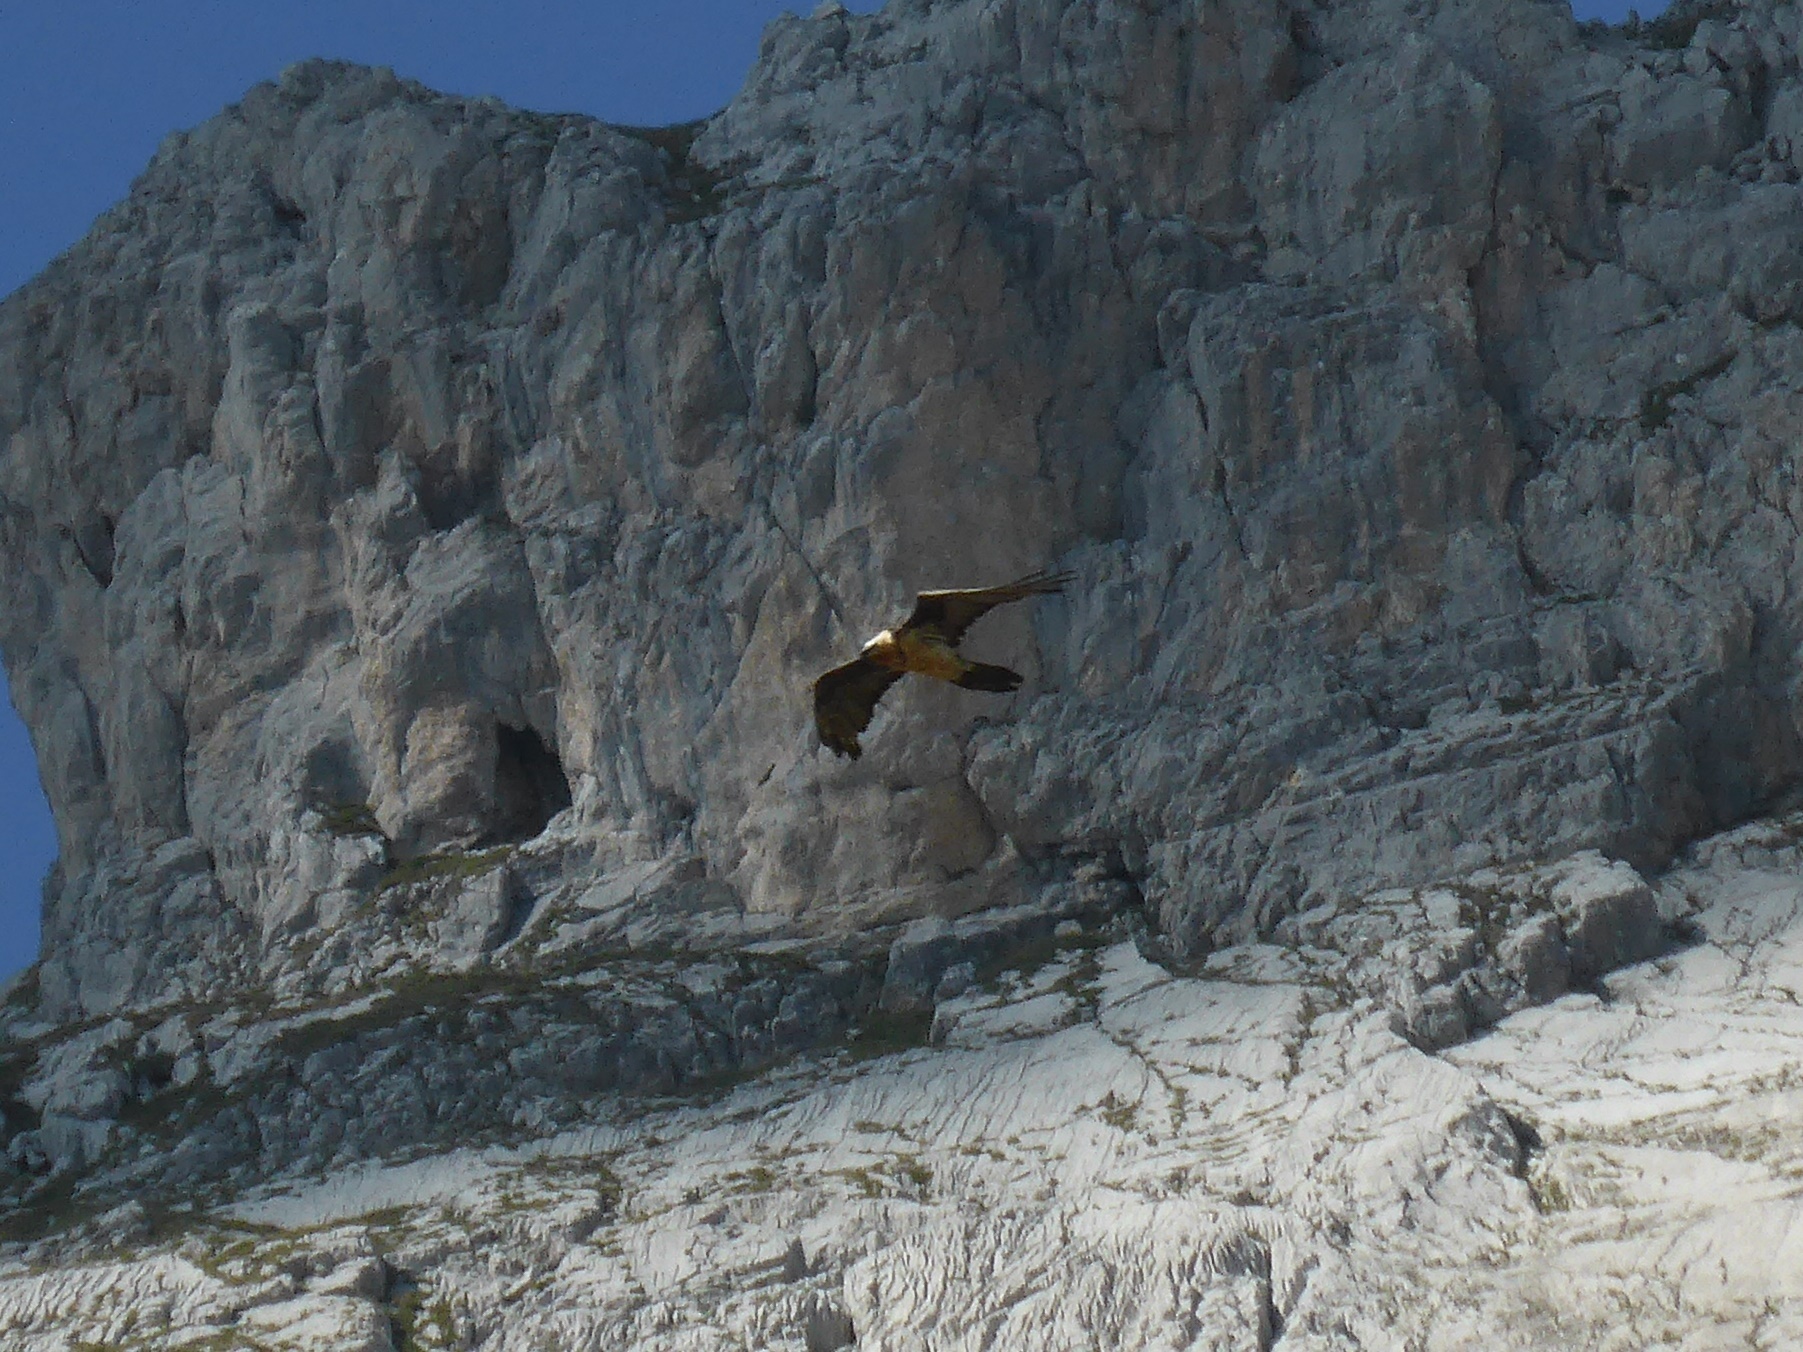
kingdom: Animalia
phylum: Chordata
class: Aves
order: Accipitriformes
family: Accipitridae
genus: Gypaetus
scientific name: Gypaetus barbatus
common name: Bearded vulture
